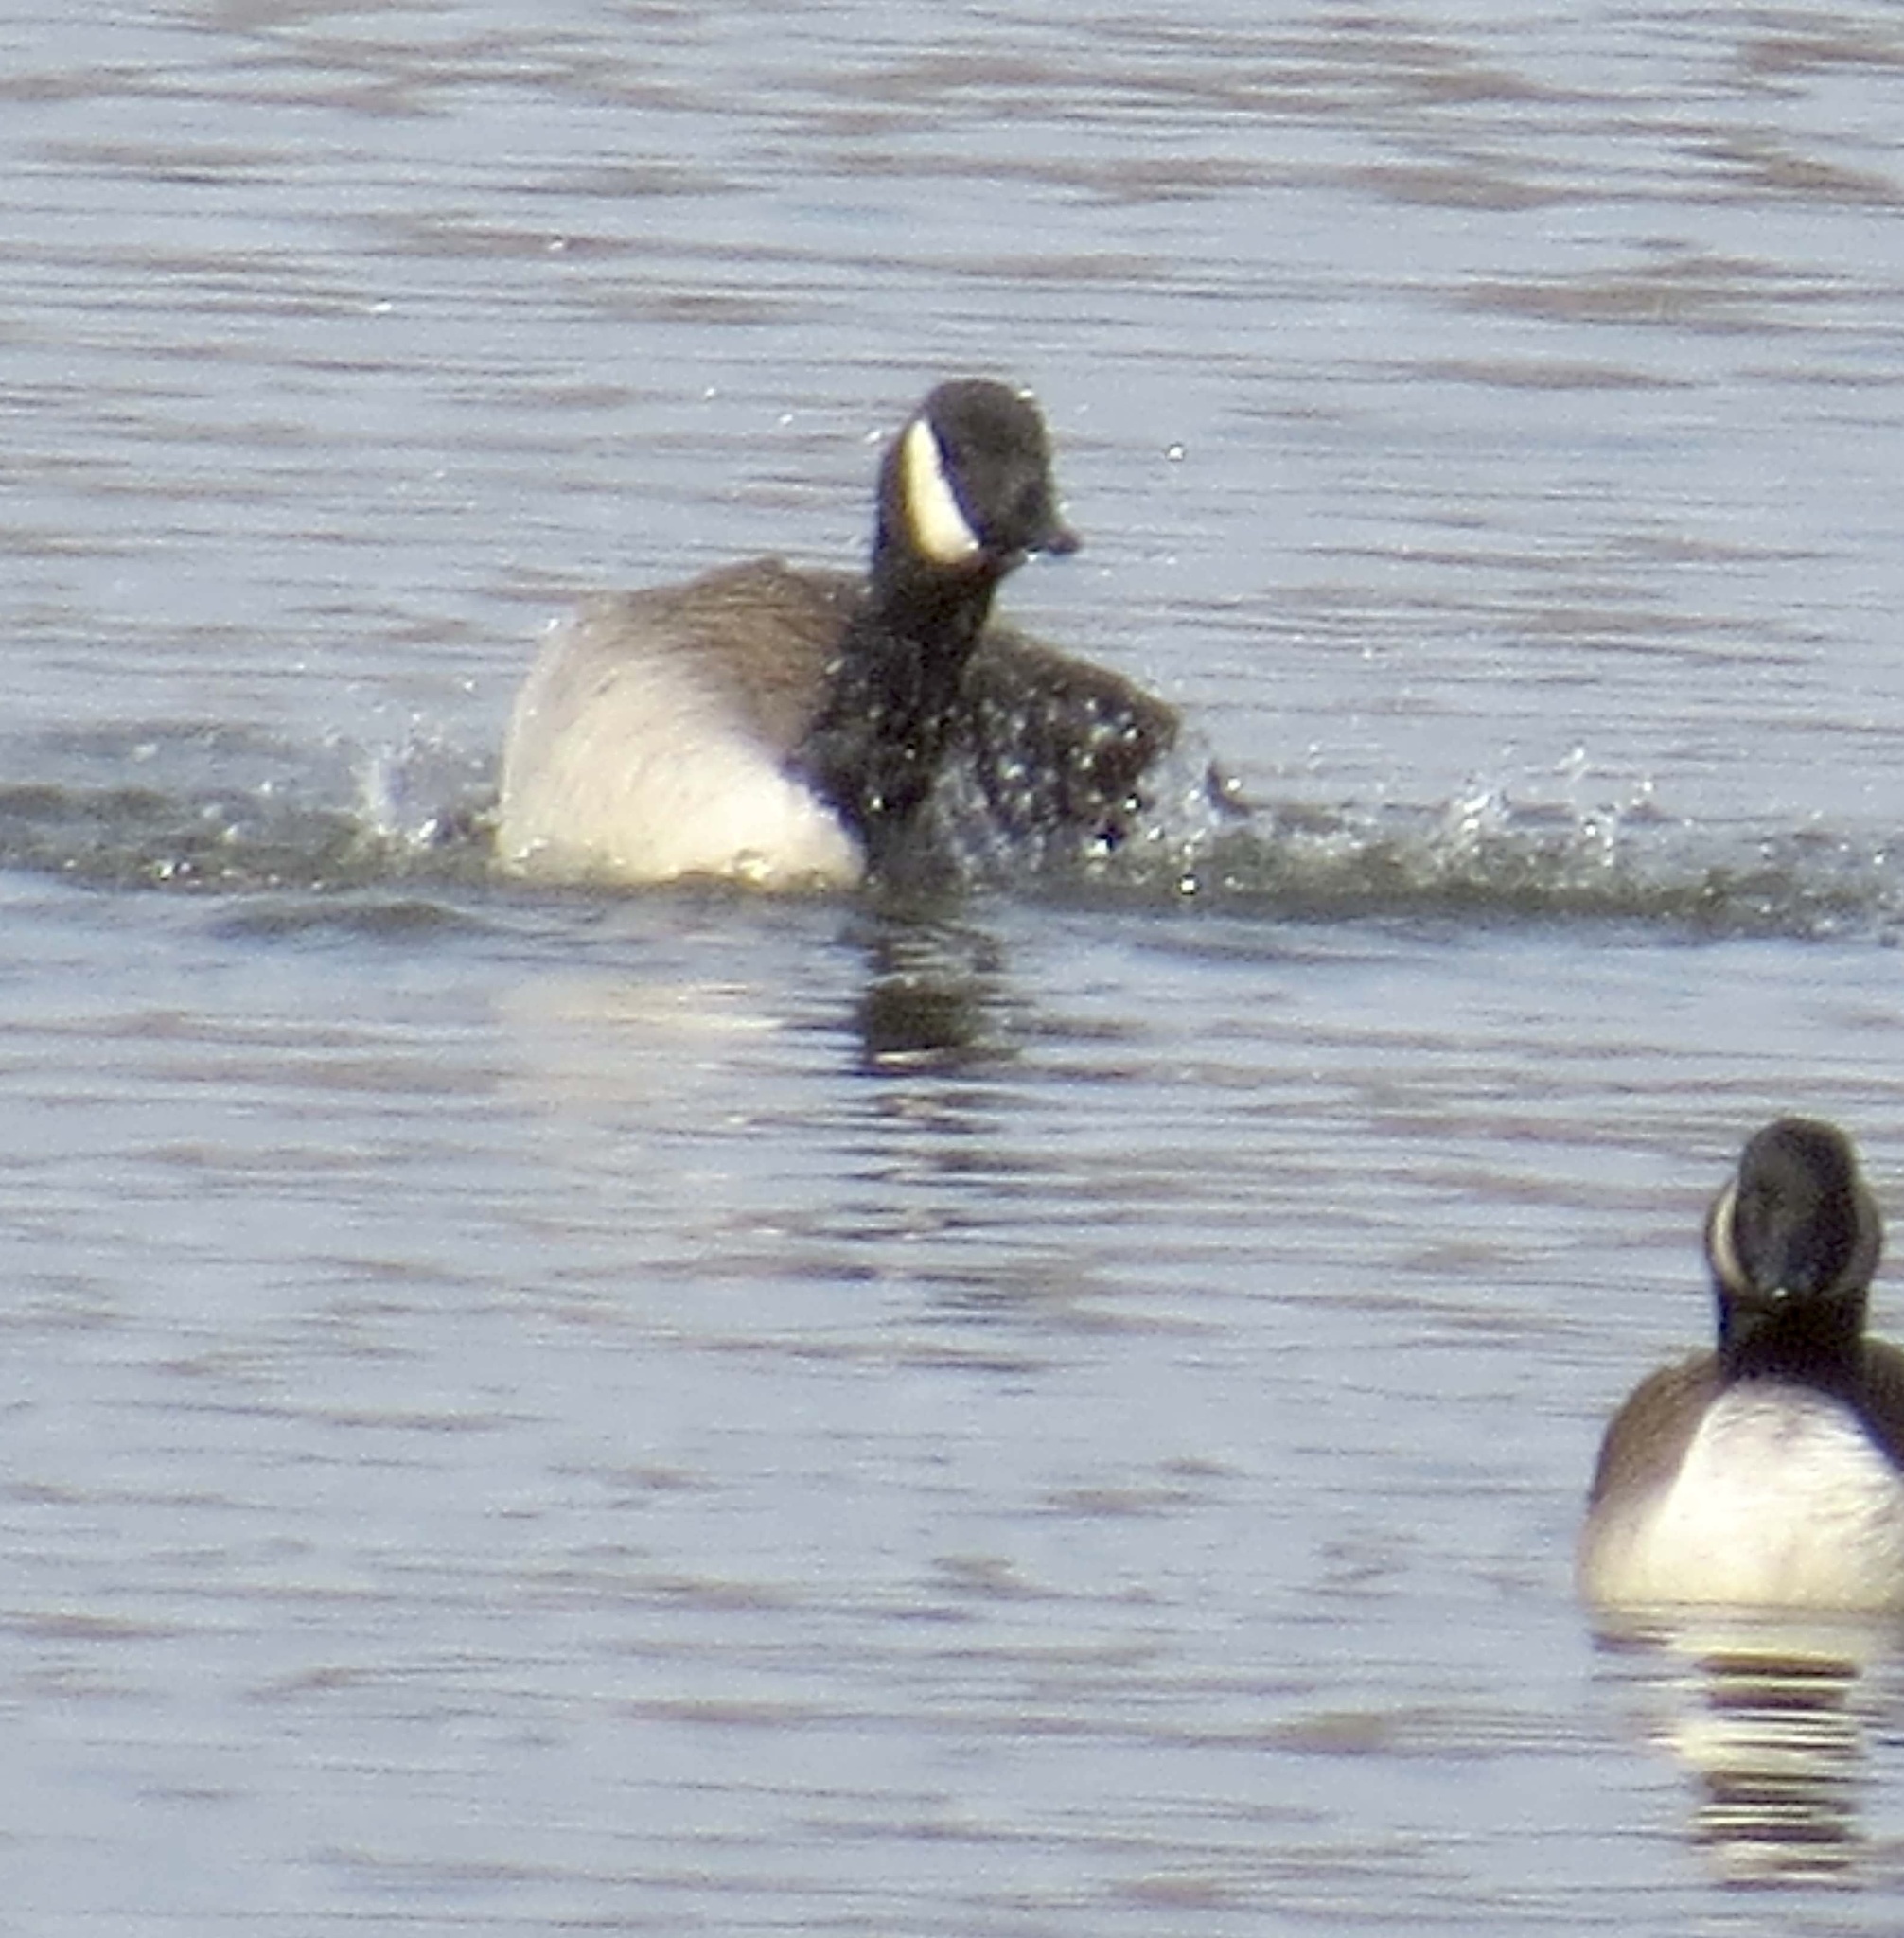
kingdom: Animalia
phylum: Chordata
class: Aves
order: Anseriformes
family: Anatidae
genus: Branta
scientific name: Branta canadensis
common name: Canada goose
